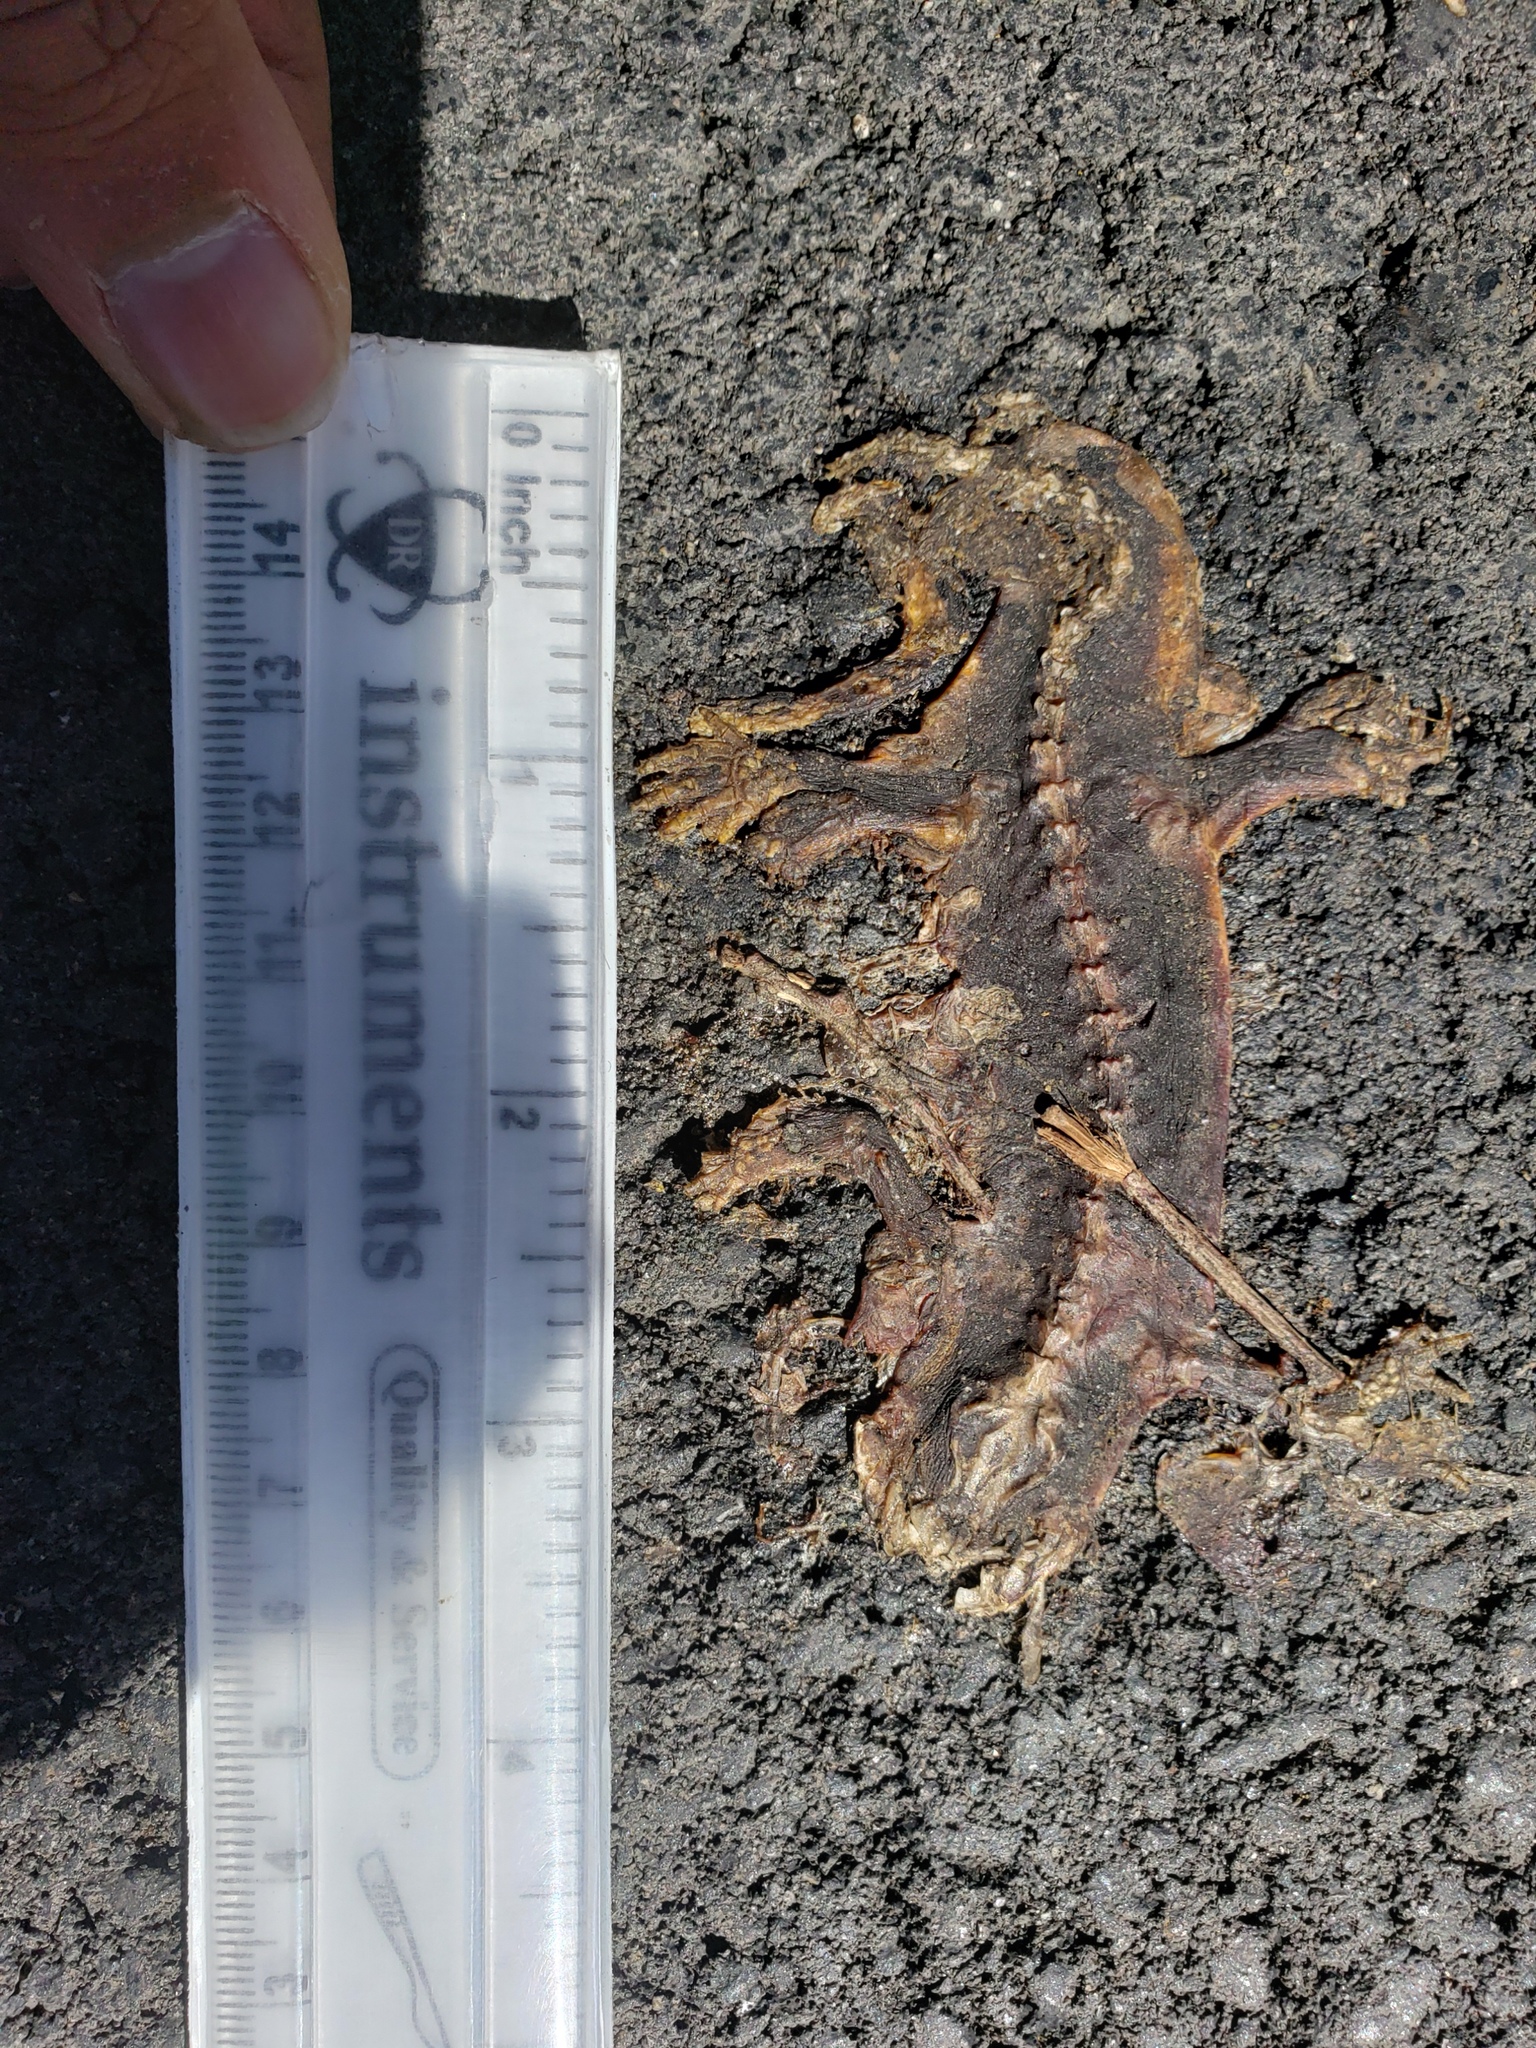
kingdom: Animalia
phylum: Chordata
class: Amphibia
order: Caudata
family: Salamandridae
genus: Taricha
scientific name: Taricha
